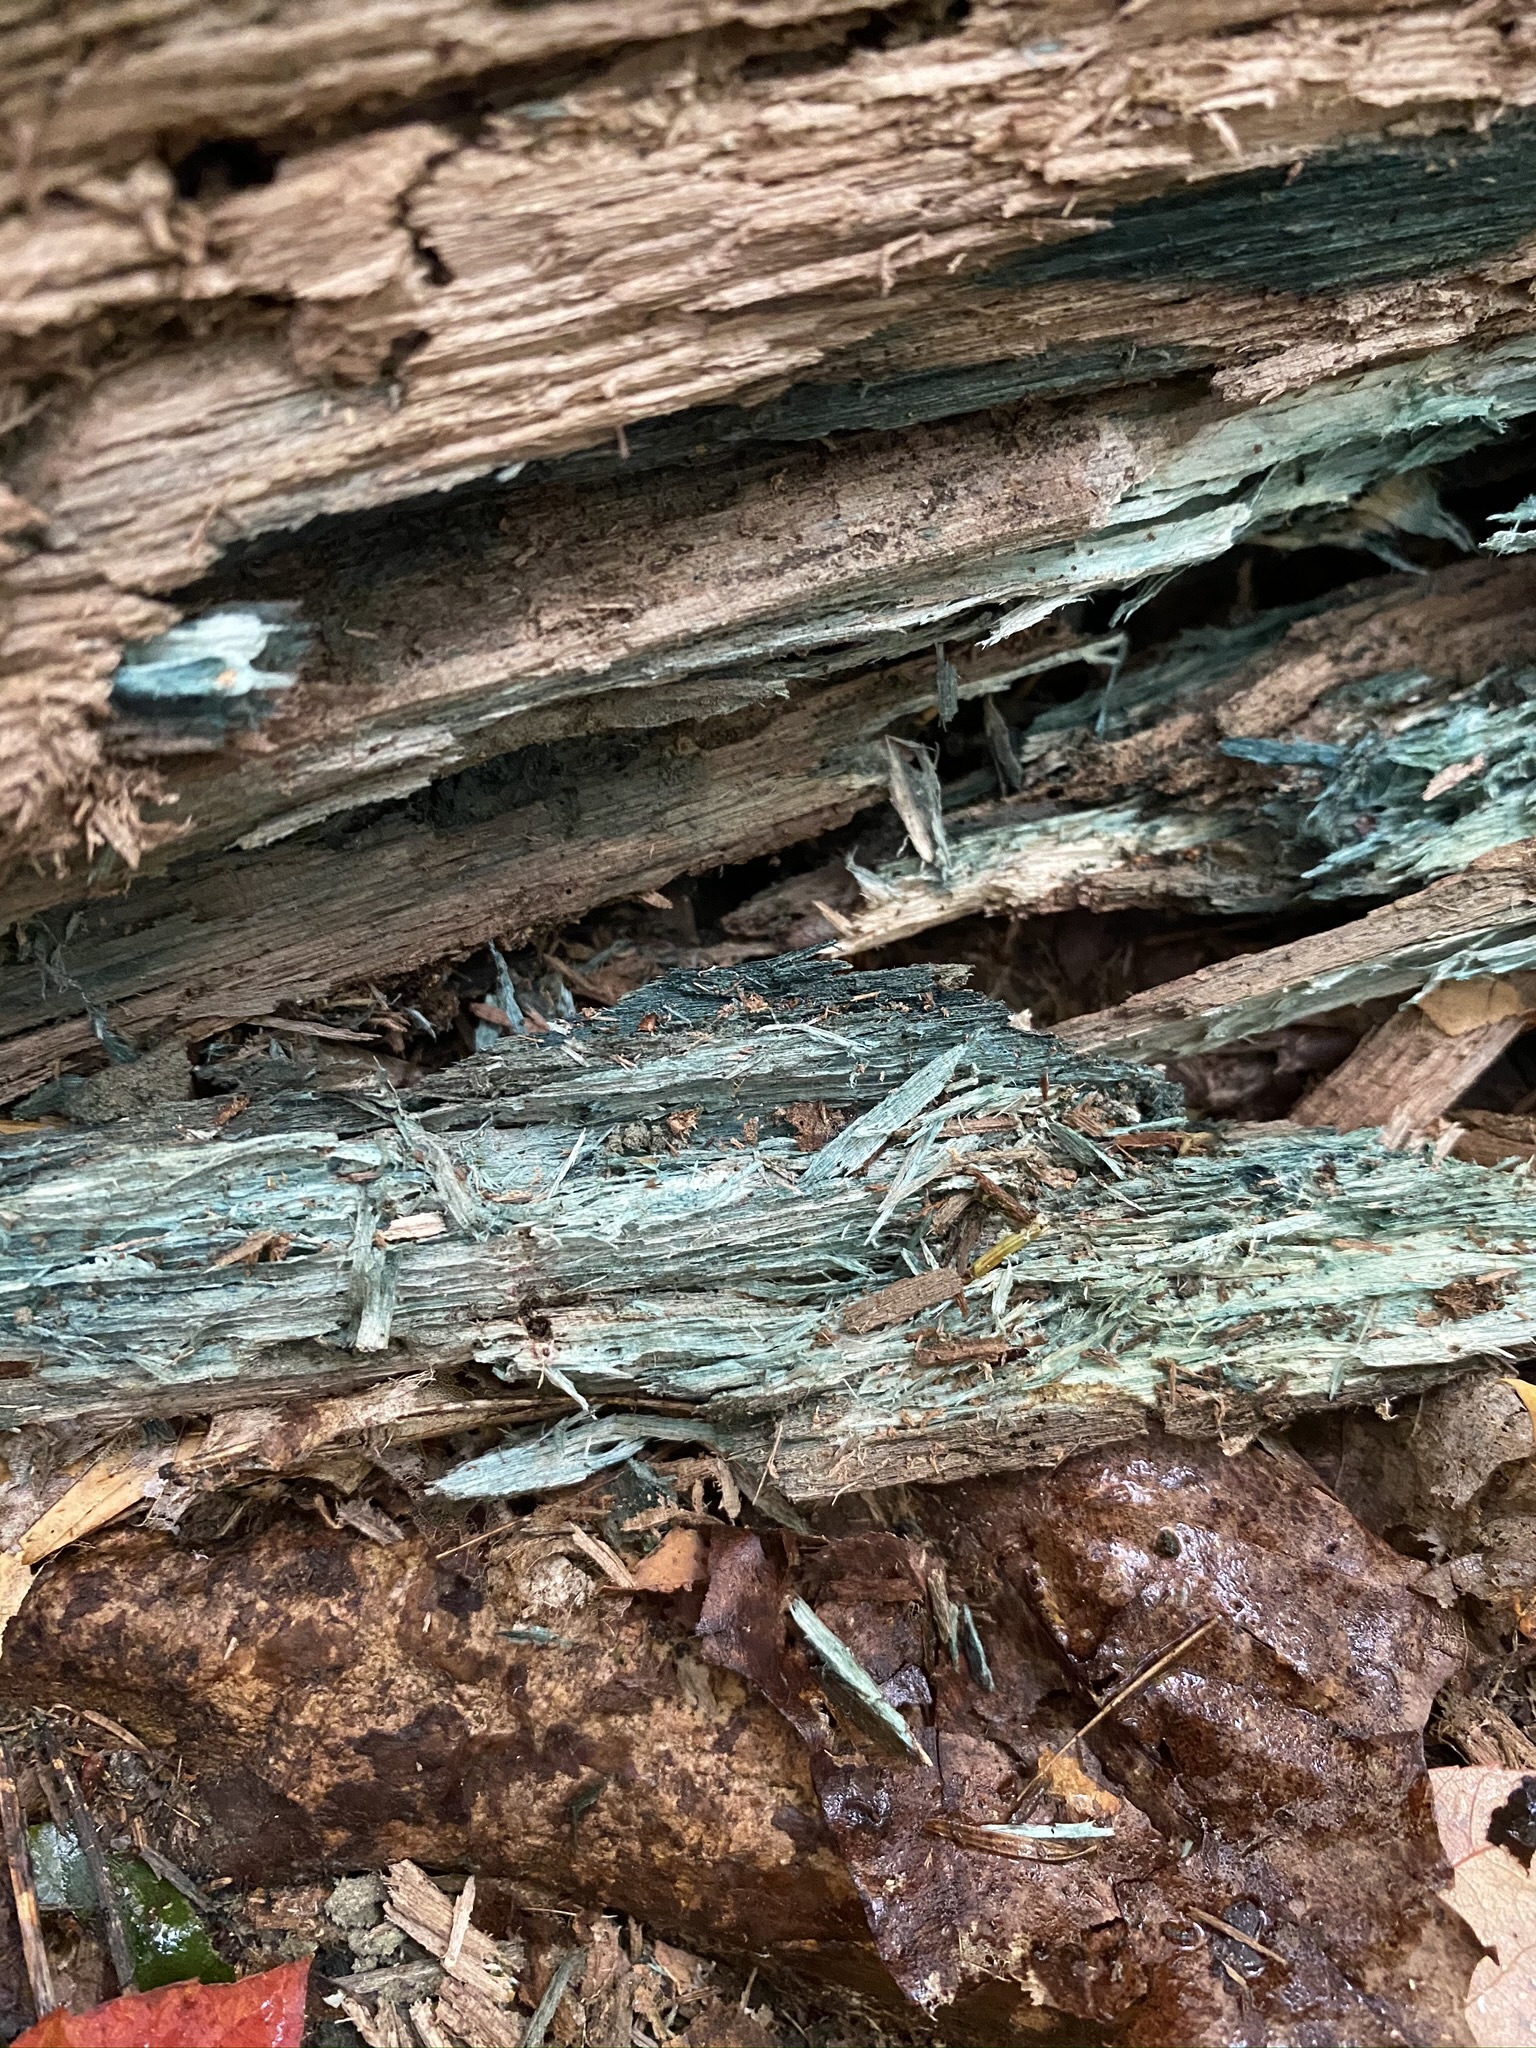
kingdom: Fungi
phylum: Ascomycota
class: Leotiomycetes
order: Helotiales
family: Chlorociboriaceae
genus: Chlorociboria
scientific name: Chlorociboria
